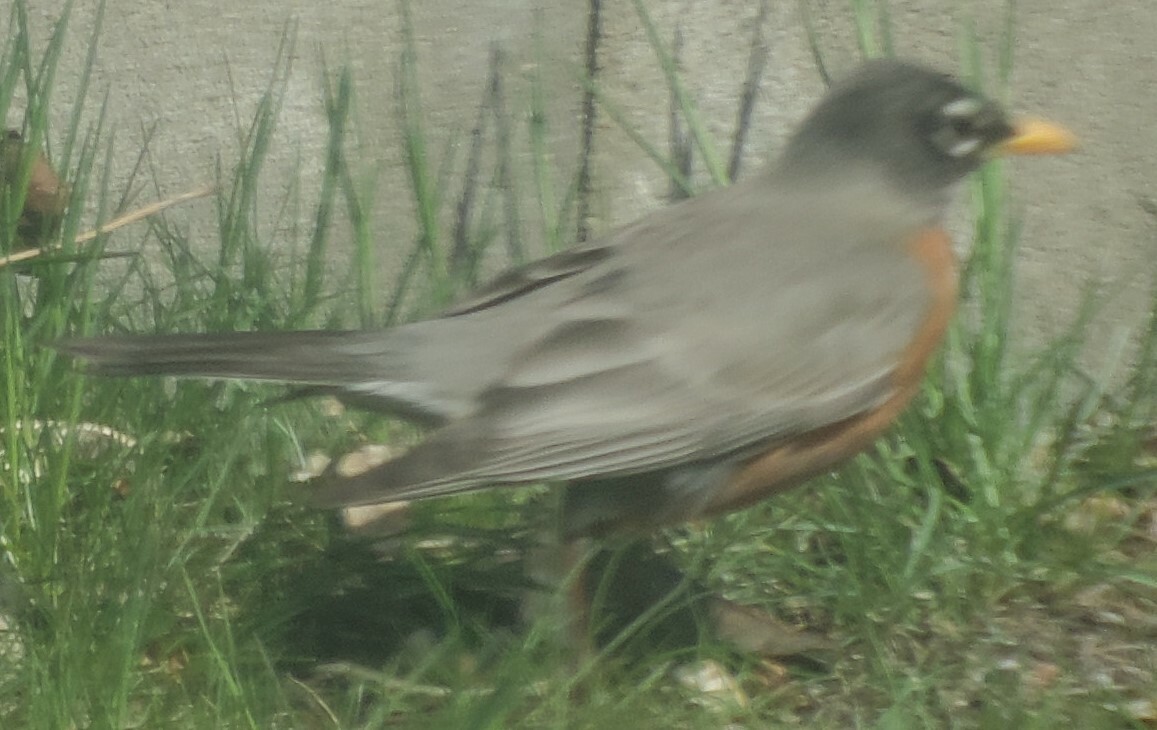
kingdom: Animalia
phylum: Chordata
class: Aves
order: Passeriformes
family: Turdidae
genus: Turdus
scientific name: Turdus migratorius
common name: American robin
